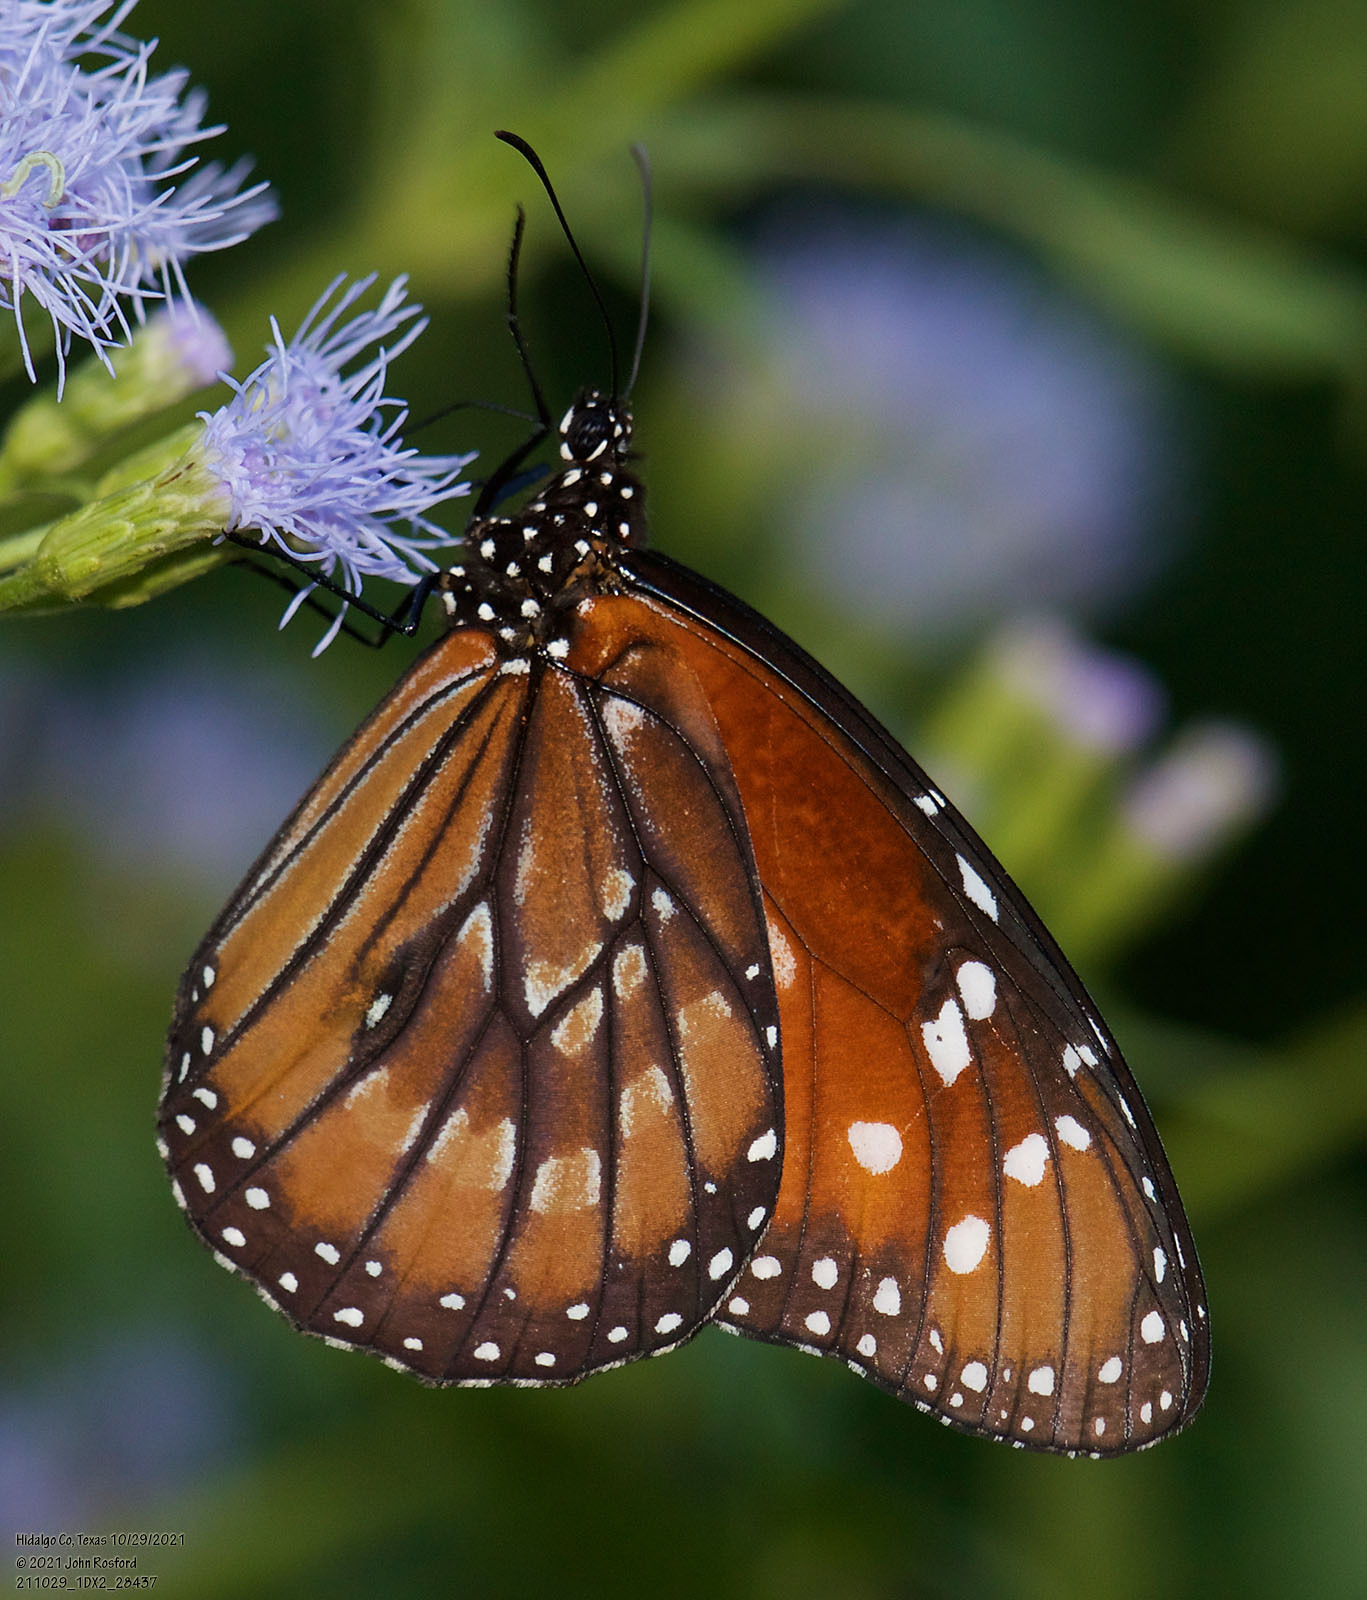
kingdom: Animalia
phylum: Arthropoda
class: Insecta
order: Lepidoptera
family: Nymphalidae
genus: Danaus
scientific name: Danaus eresimus
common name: Soldier
